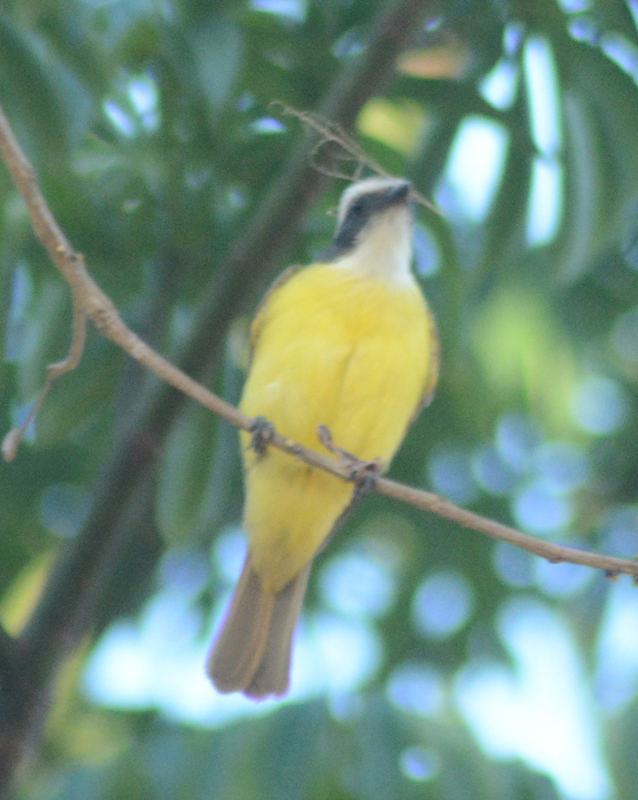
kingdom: Animalia
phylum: Chordata
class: Aves
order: Passeriformes
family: Tyrannidae
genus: Myiozetetes
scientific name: Myiozetetes similis
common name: Social flycatcher
